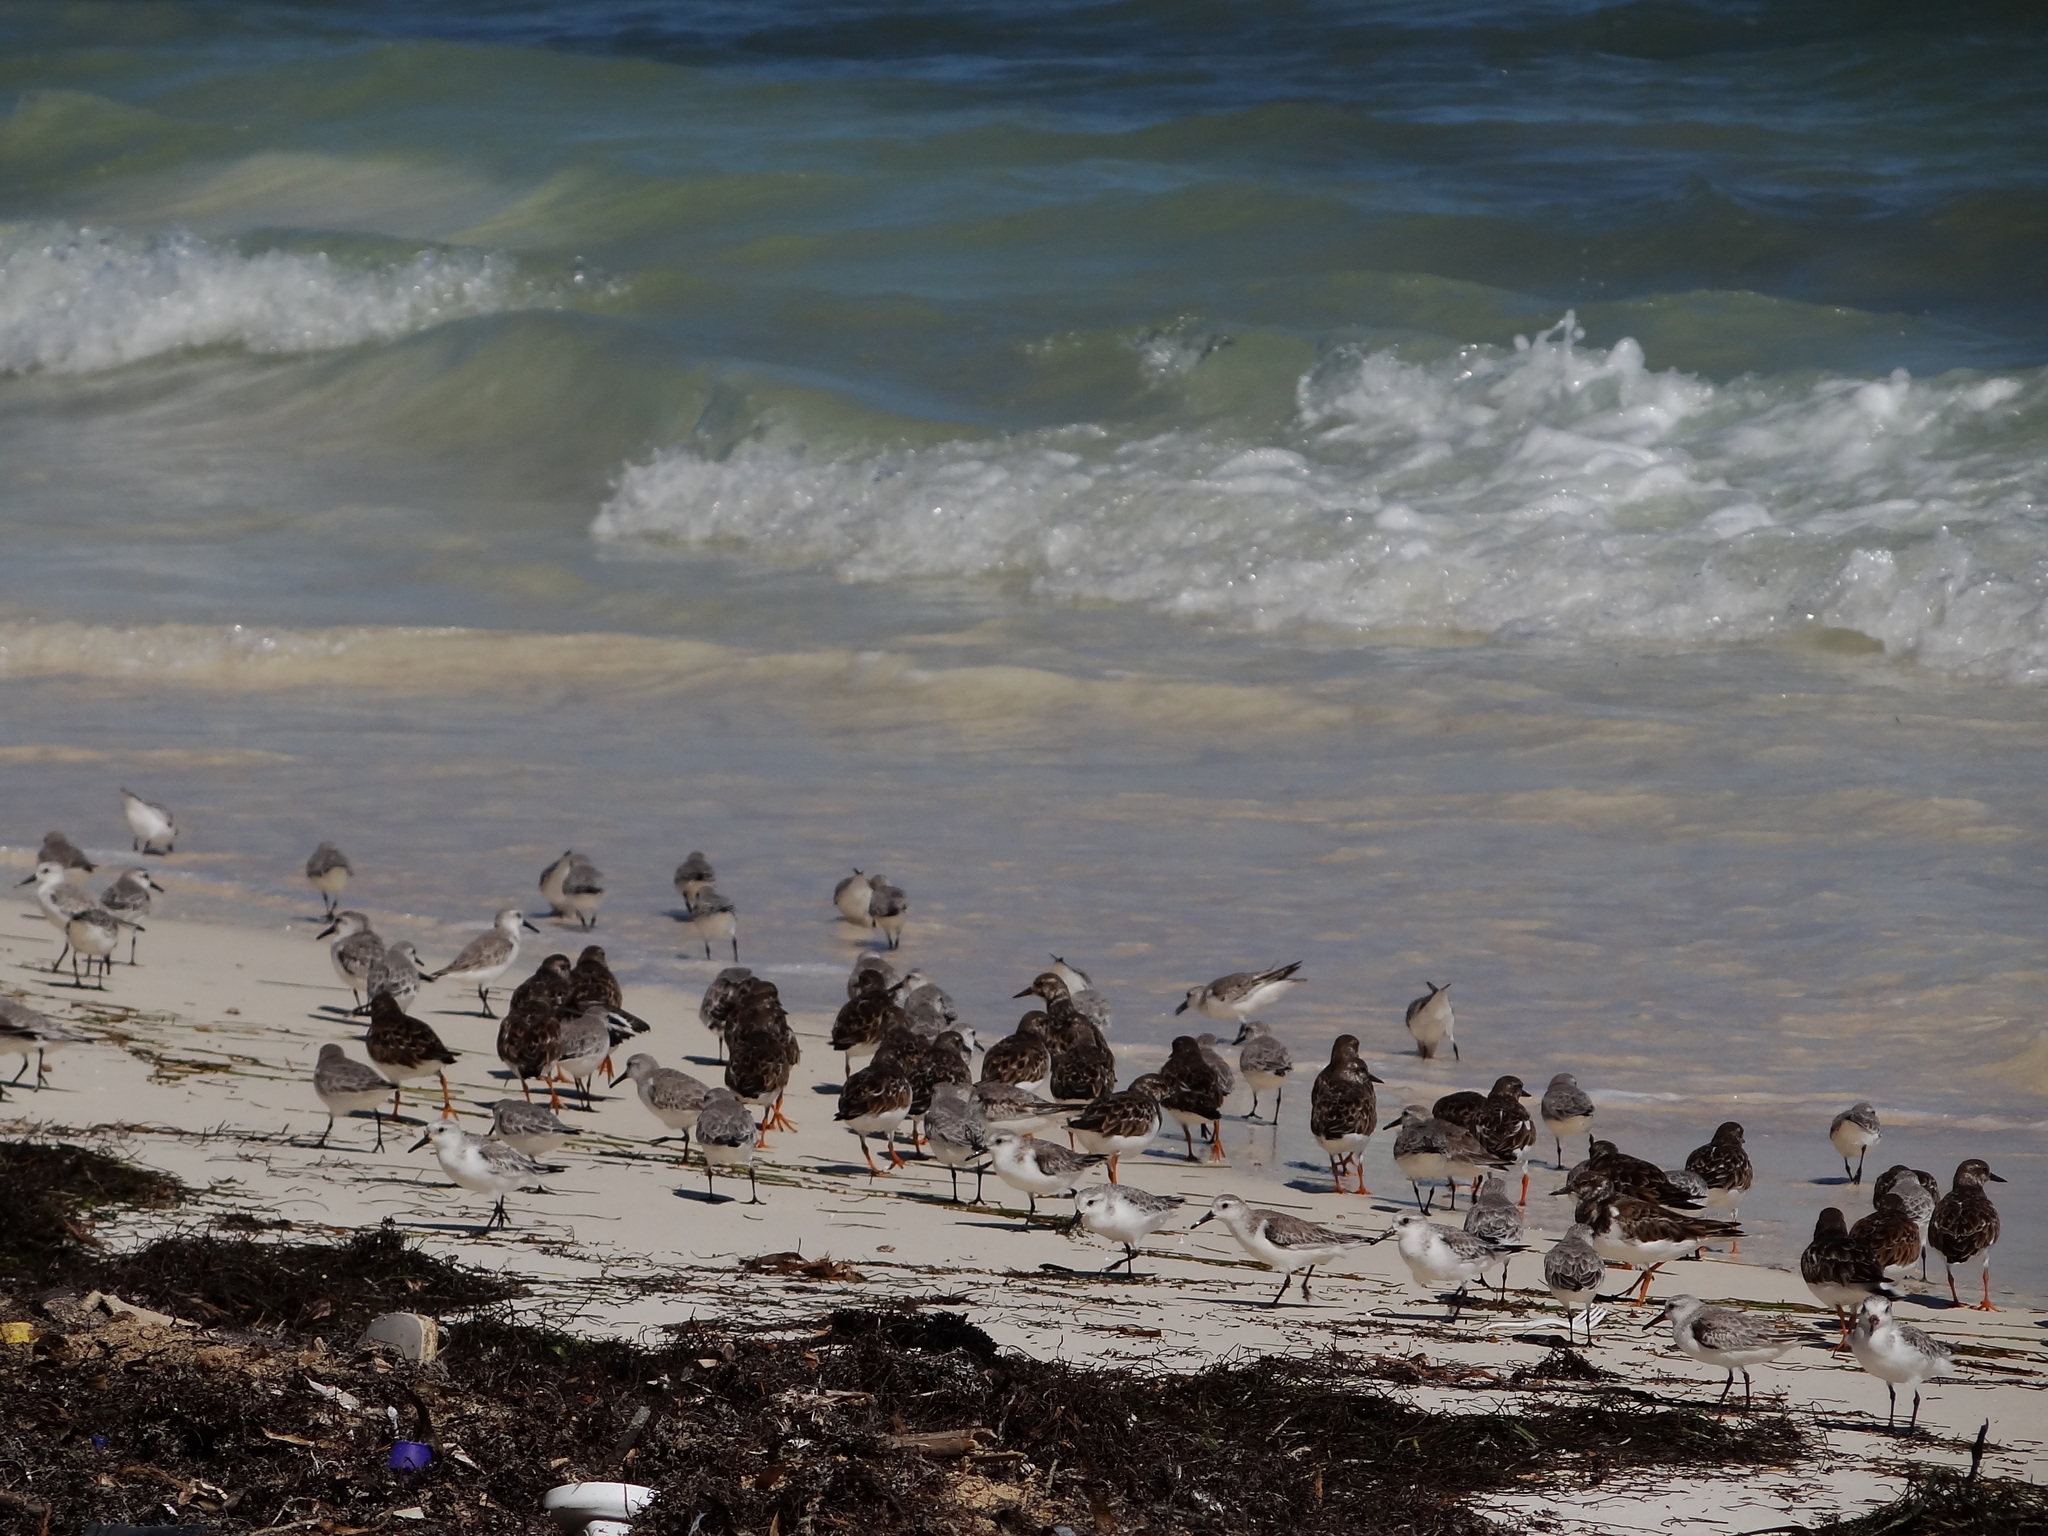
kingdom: Animalia
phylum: Chordata
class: Aves
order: Charadriiformes
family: Scolopacidae
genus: Arenaria
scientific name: Arenaria interpres
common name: Ruddy turnstone
